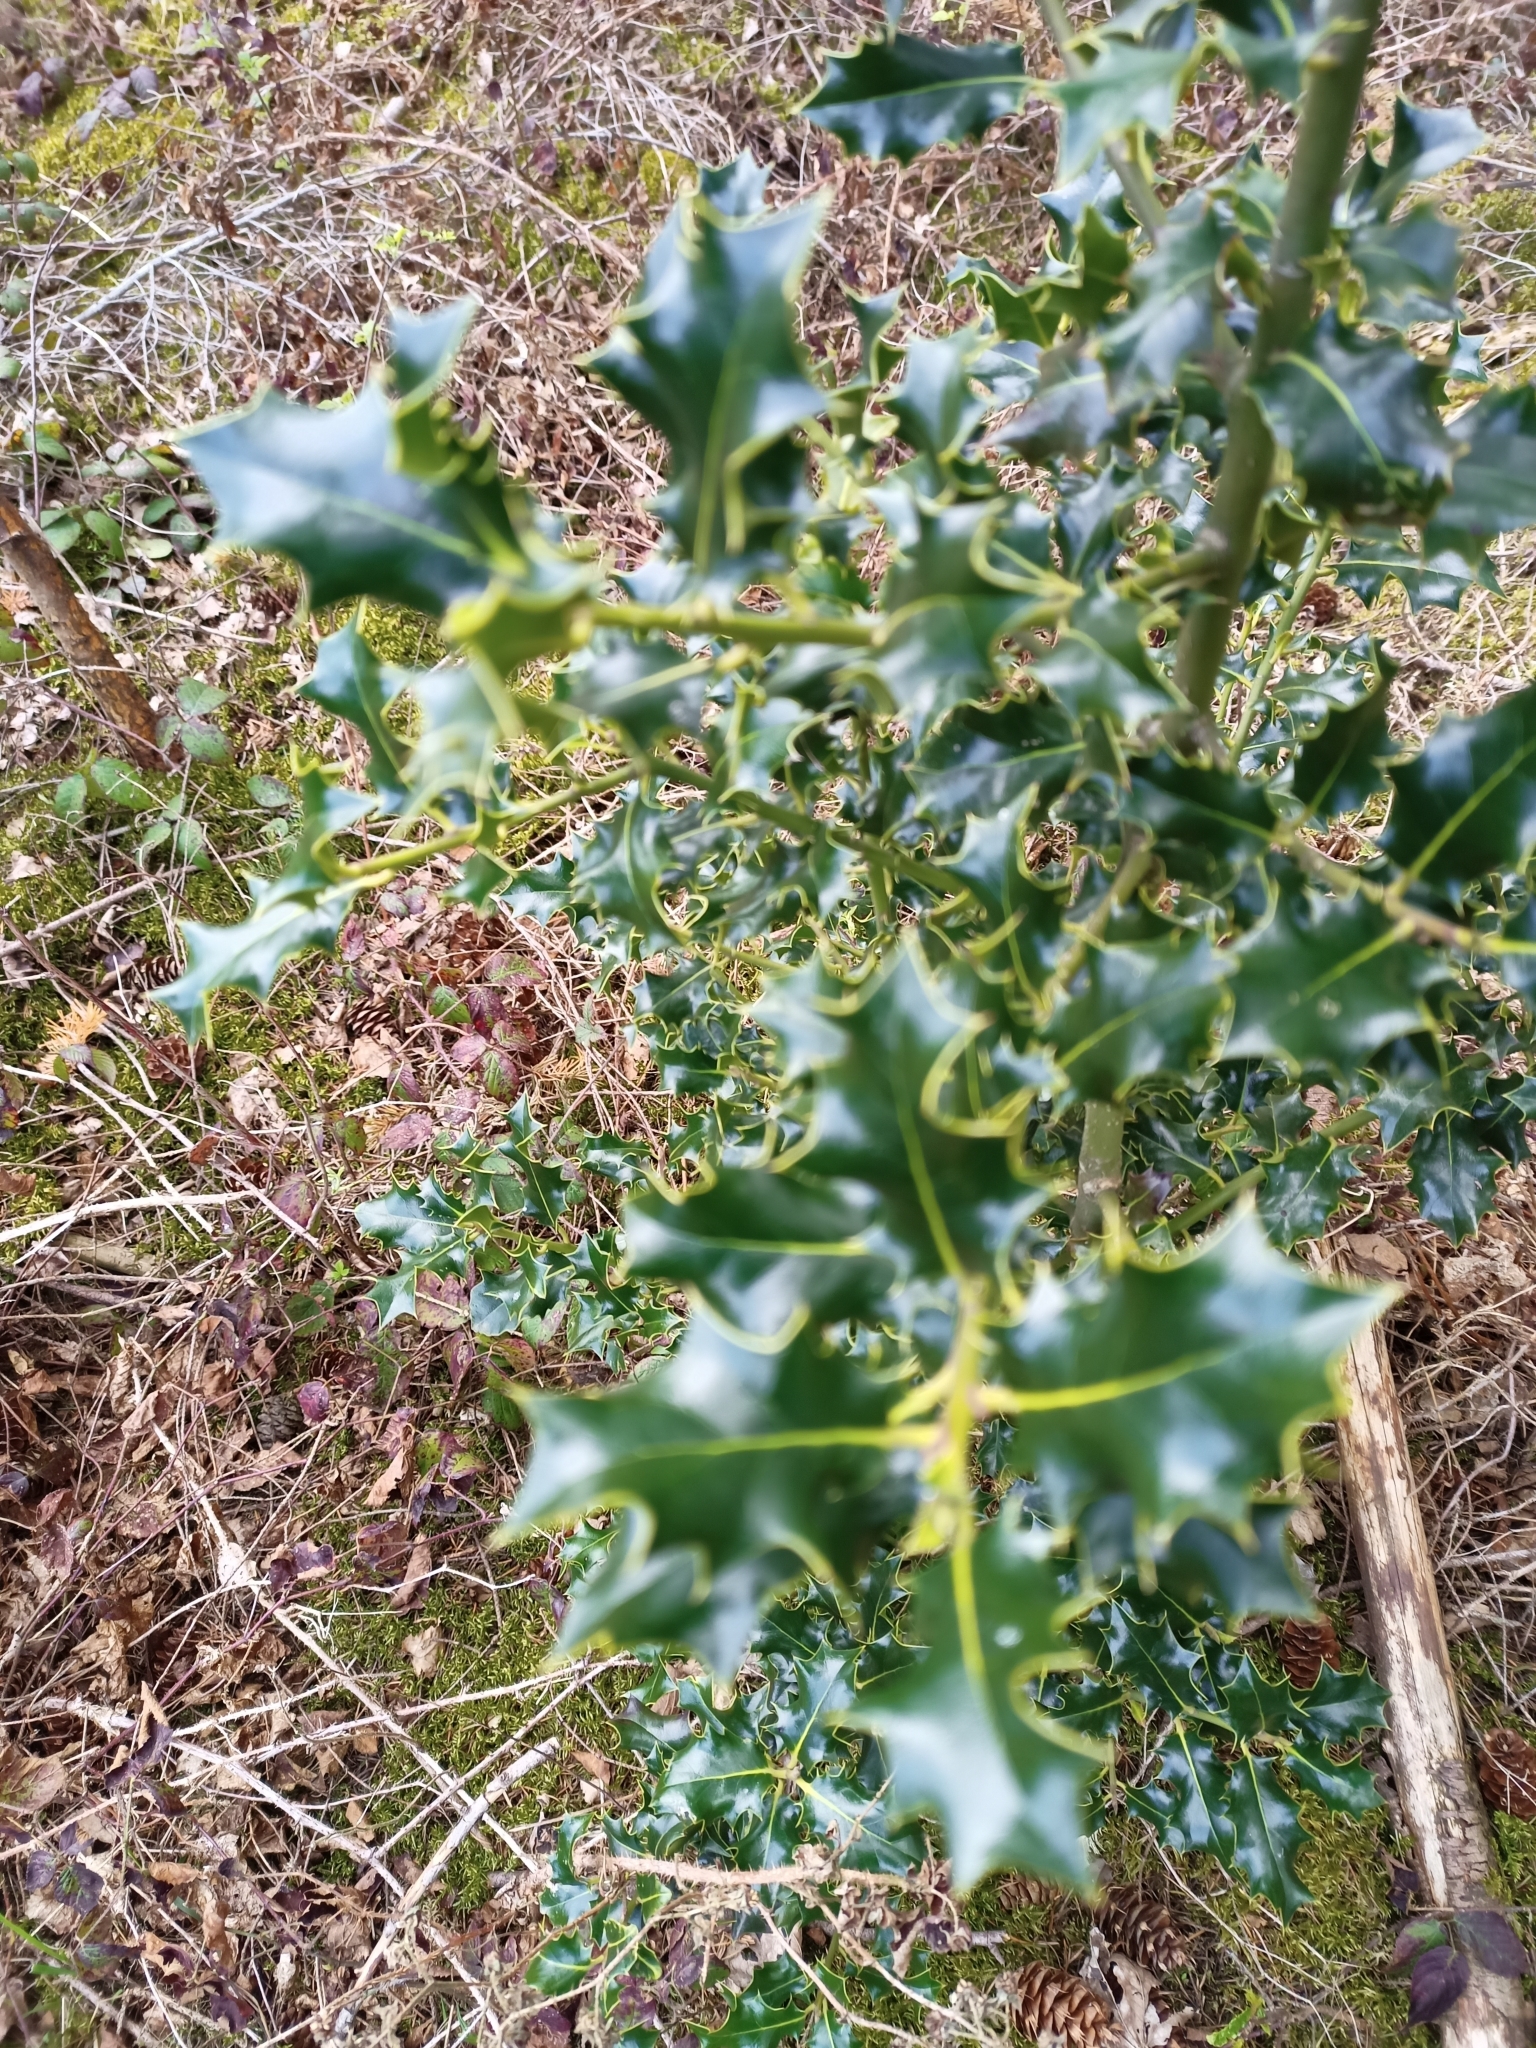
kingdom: Plantae
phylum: Tracheophyta
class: Magnoliopsida
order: Aquifoliales
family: Aquifoliaceae
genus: Ilex
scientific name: Ilex aquifolium
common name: English holly
